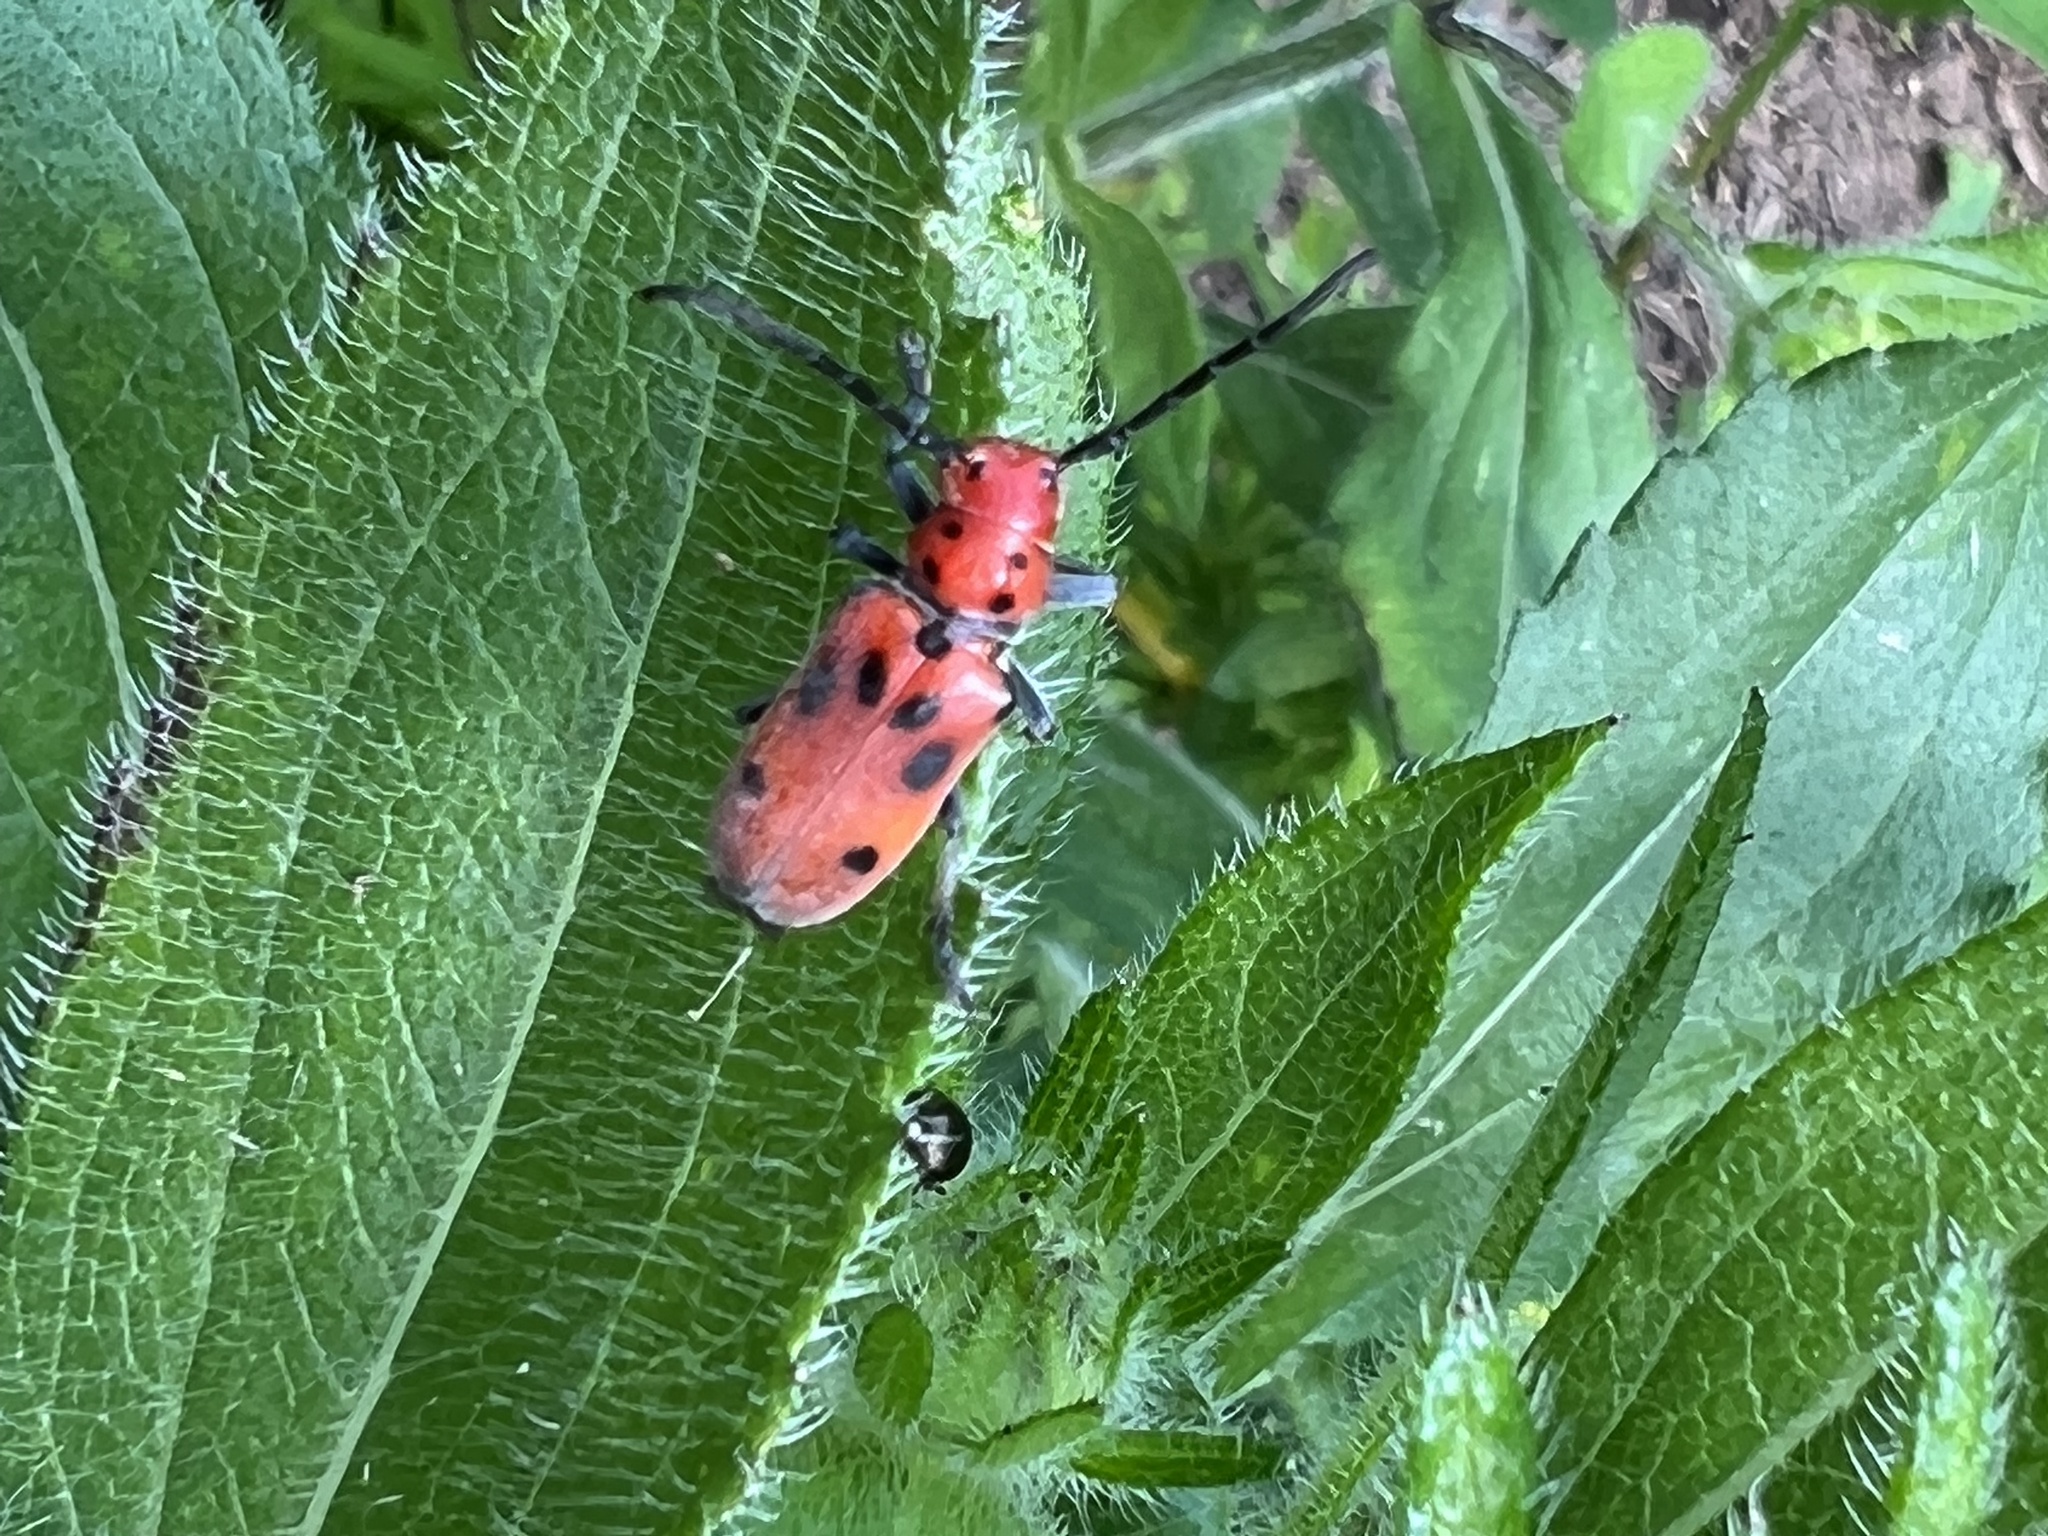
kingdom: Animalia
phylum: Arthropoda
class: Insecta
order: Coleoptera
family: Cerambycidae
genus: Tetraopes
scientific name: Tetraopes tetrophthalmus
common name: Red milkweed beetle
